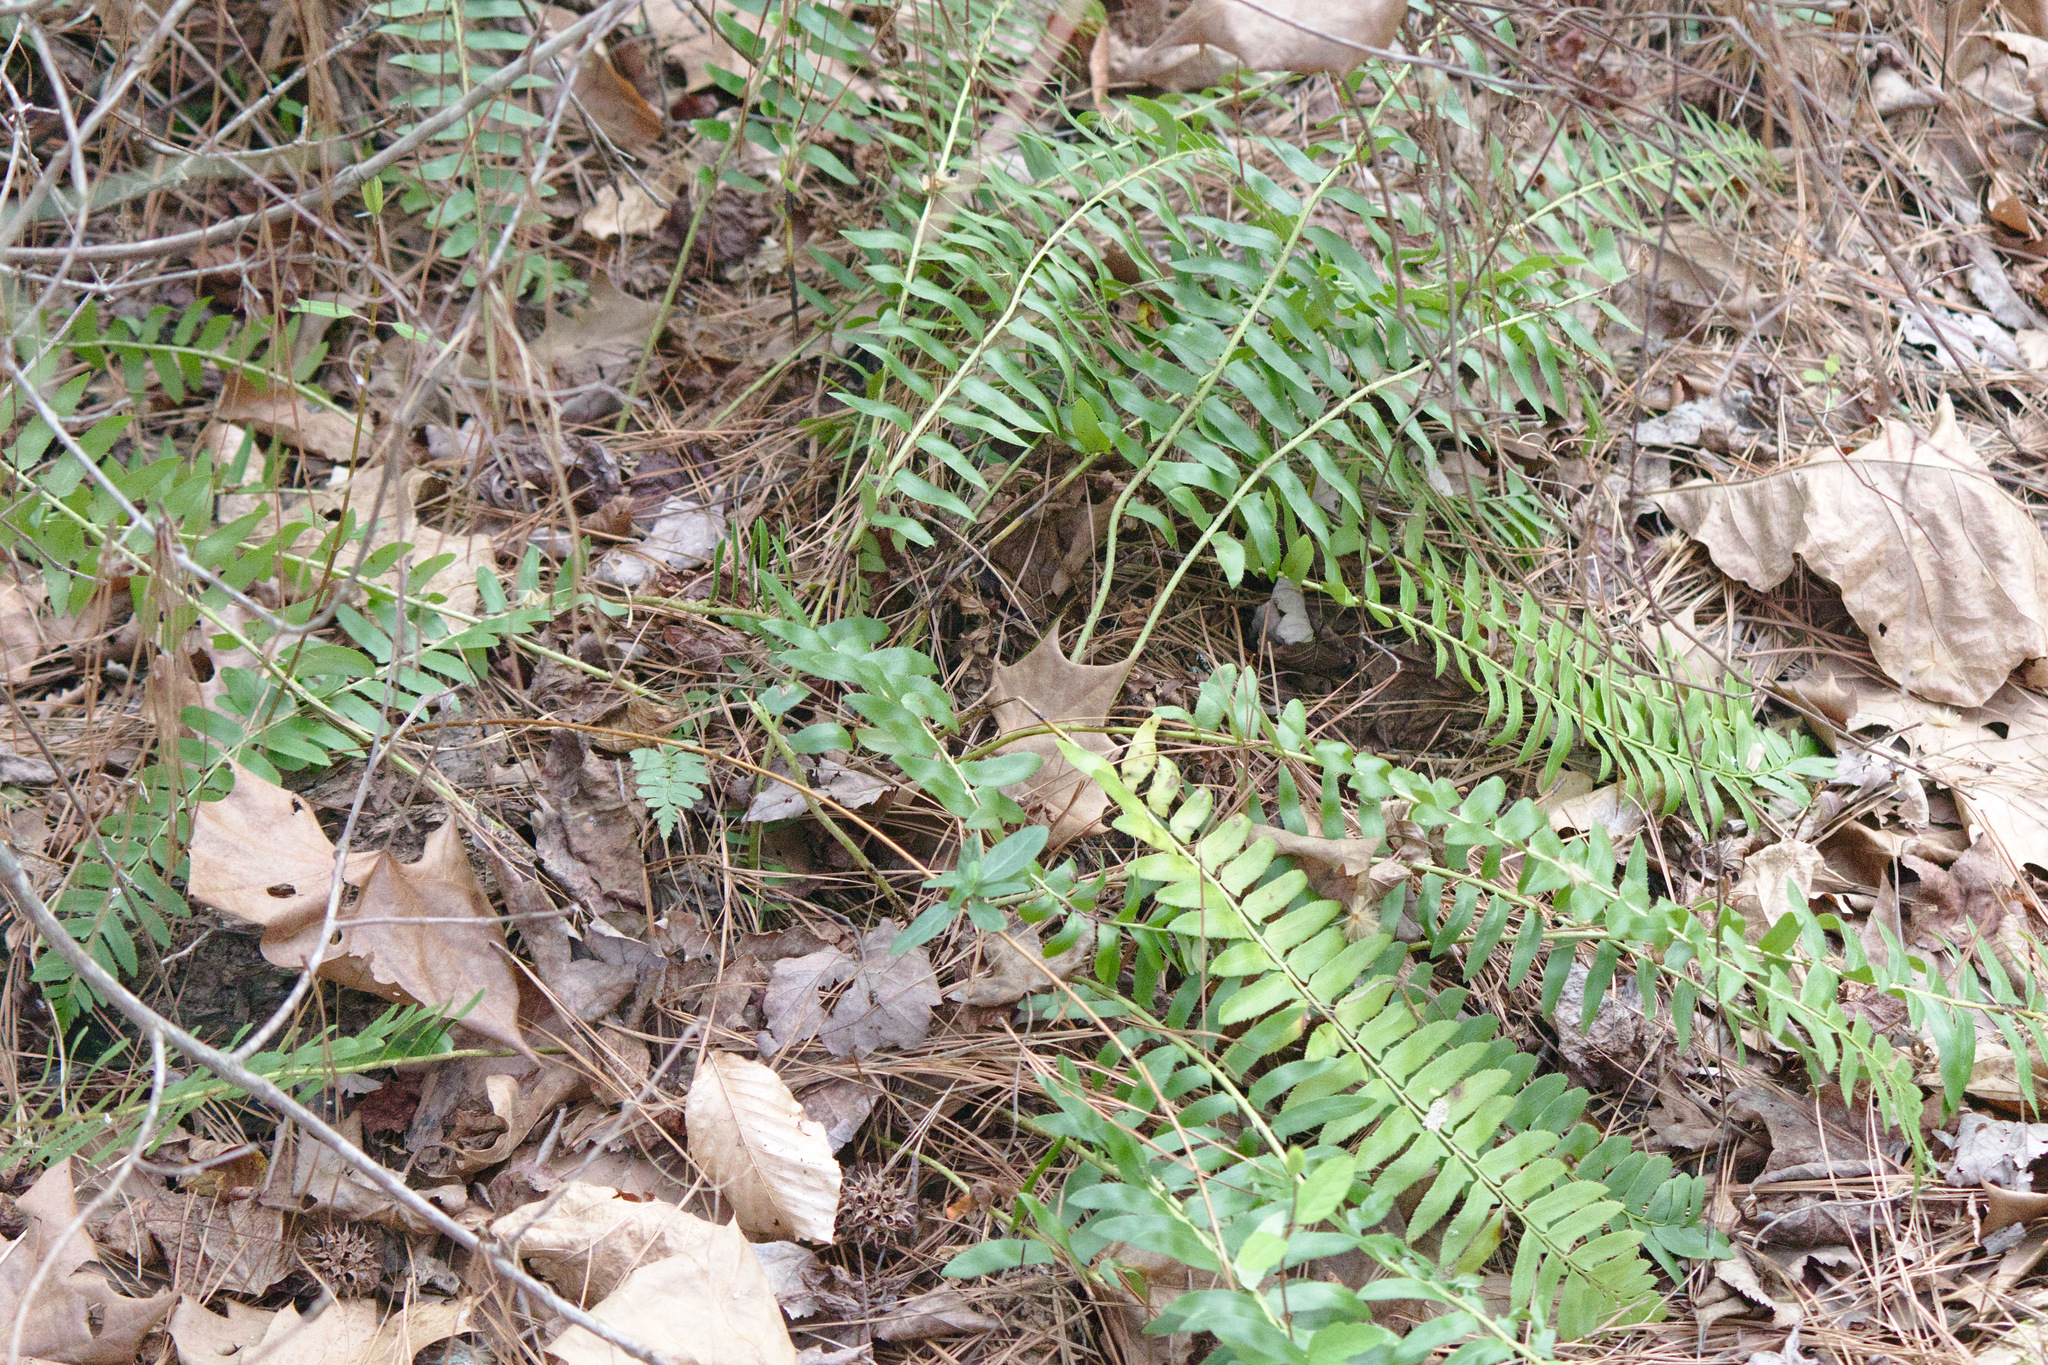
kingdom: Plantae
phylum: Tracheophyta
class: Polypodiopsida
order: Polypodiales
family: Dryopteridaceae
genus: Polystichum
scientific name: Polystichum acrostichoides
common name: Christmas fern
